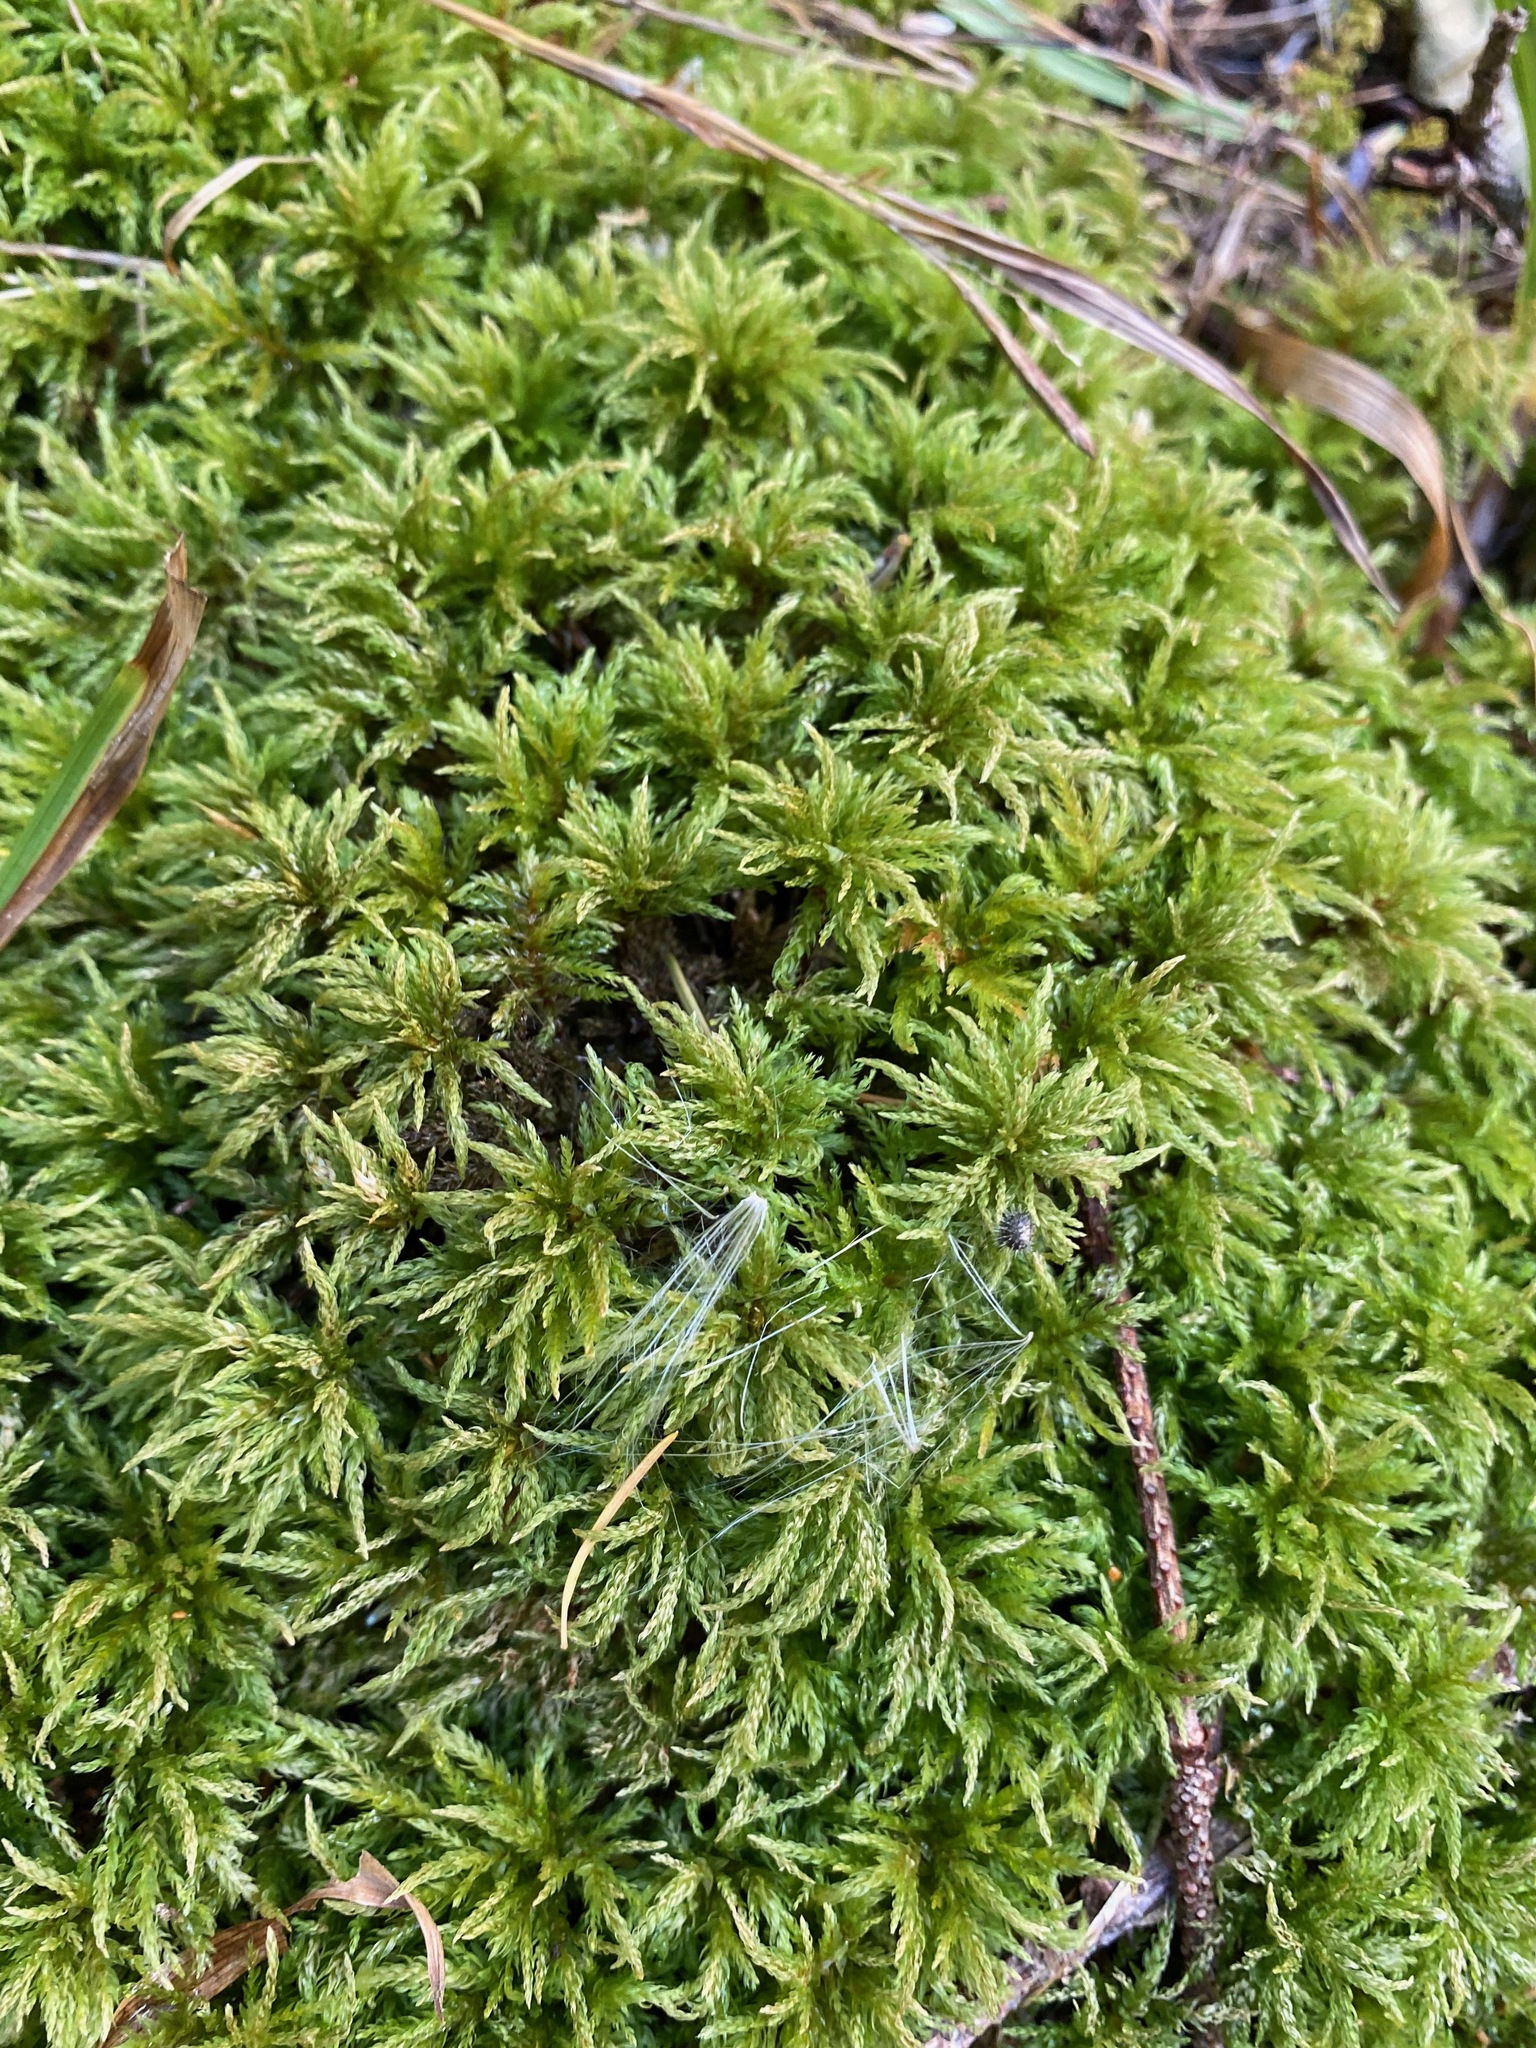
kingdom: Plantae
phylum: Bryophyta
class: Bryopsida
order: Bryales
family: Mniaceae
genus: Leucolepis
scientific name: Leucolepis acanthoneura
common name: Leucolepis umbrella moss
